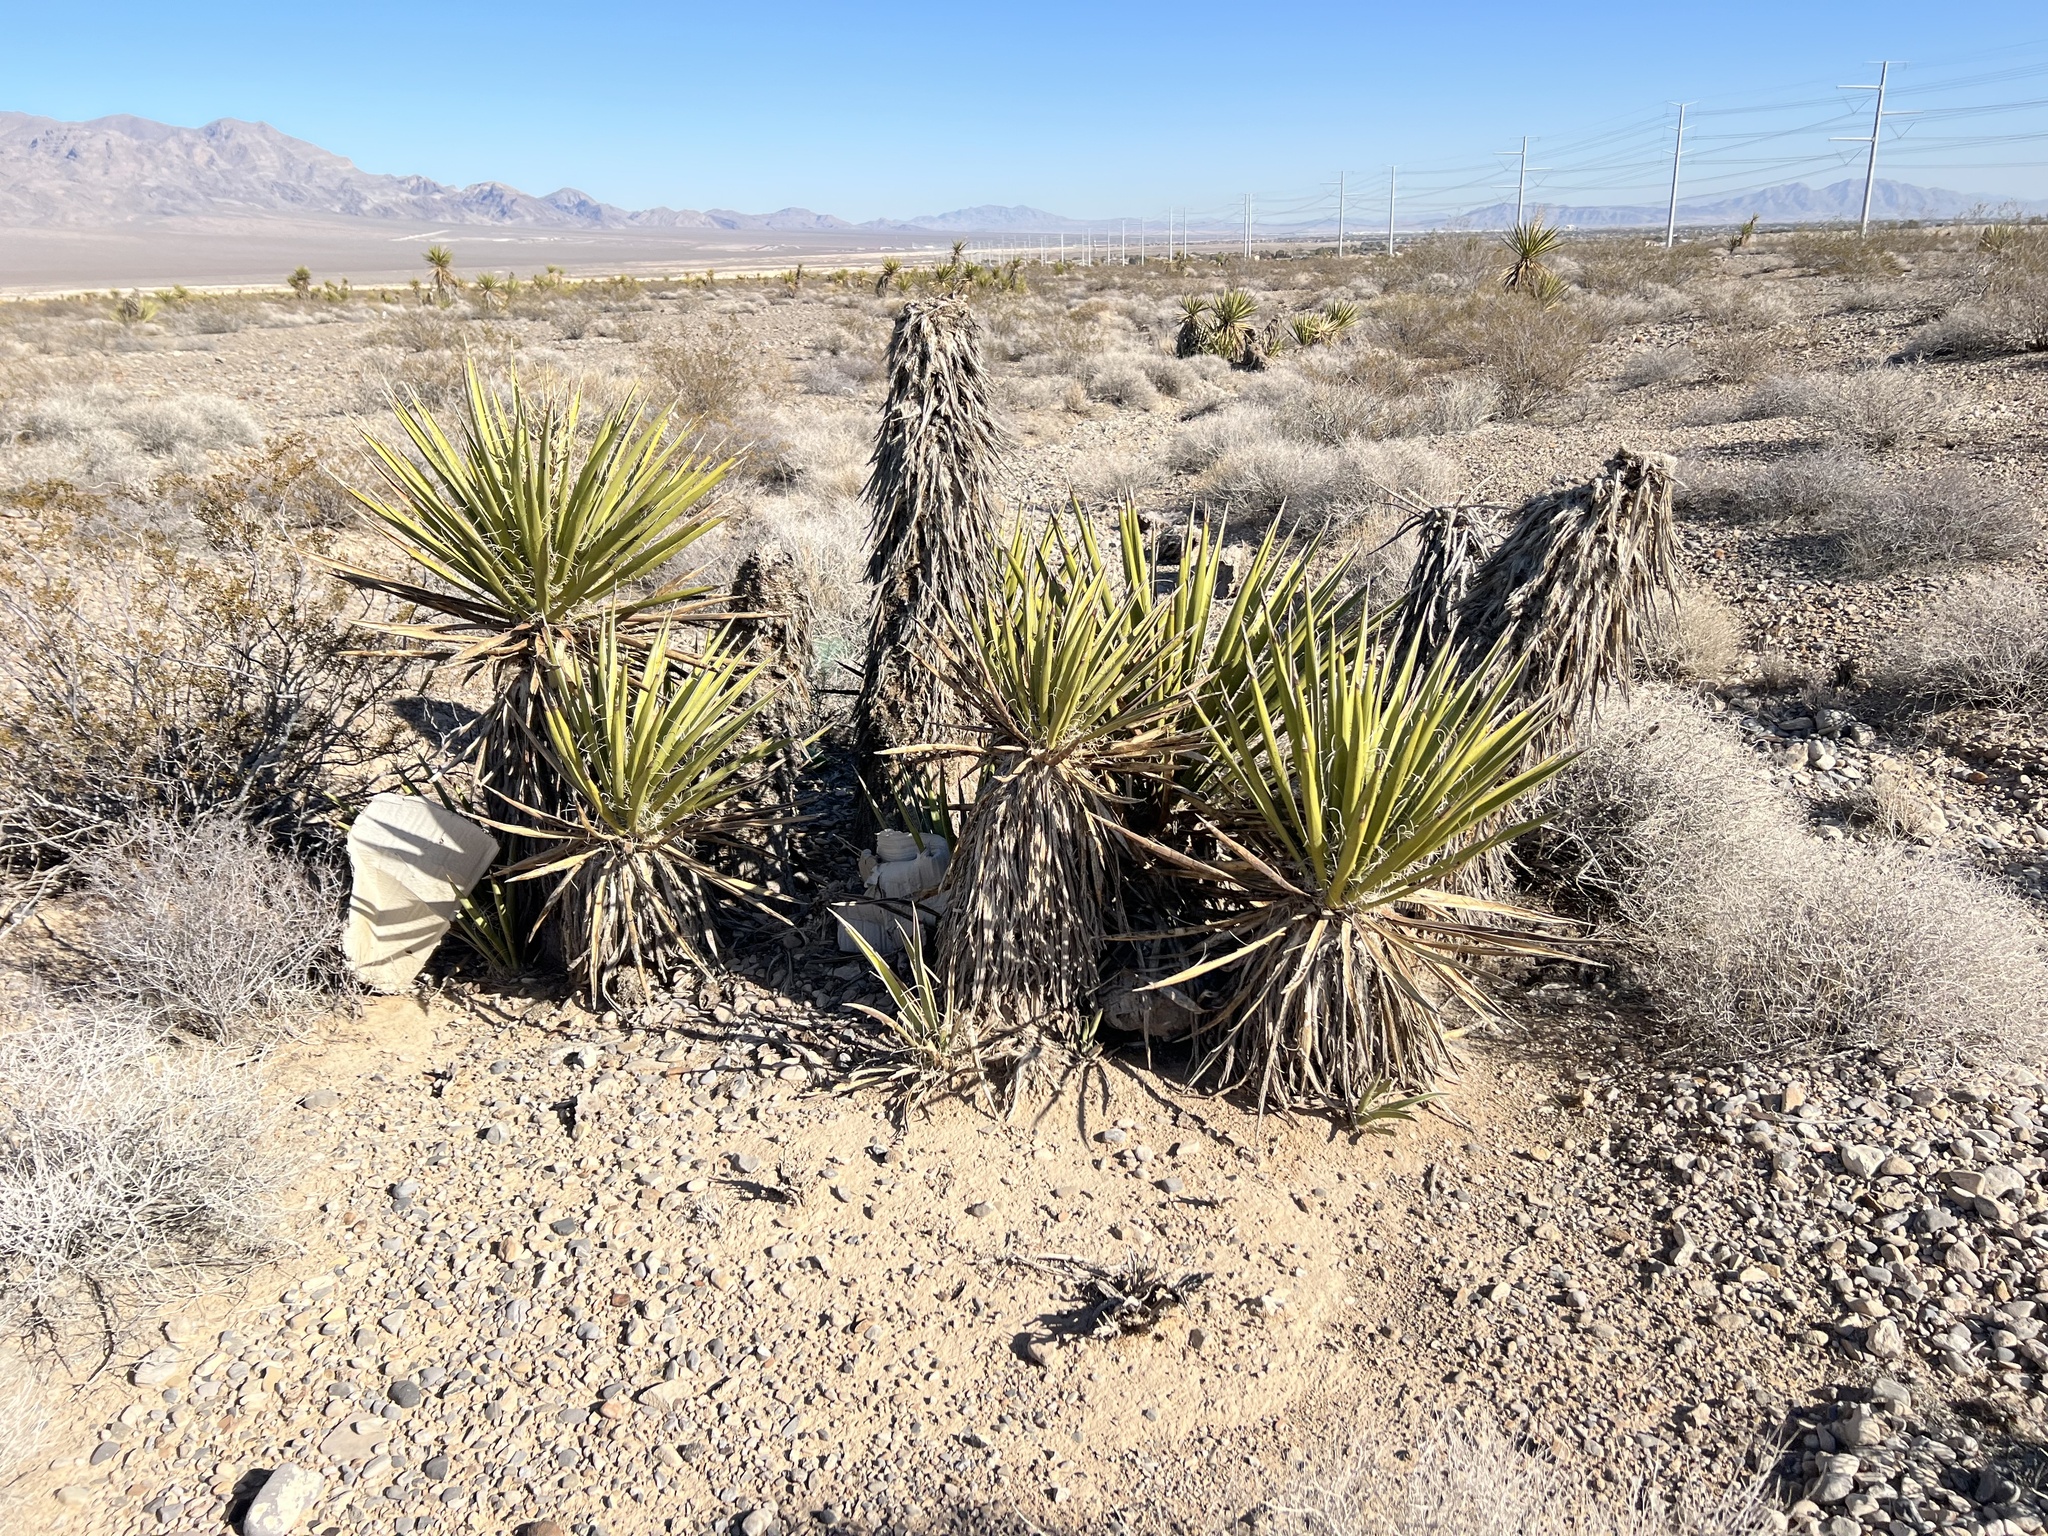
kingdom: Plantae
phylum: Tracheophyta
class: Liliopsida
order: Asparagales
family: Asparagaceae
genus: Yucca
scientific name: Yucca schidigera
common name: Mojave yucca
